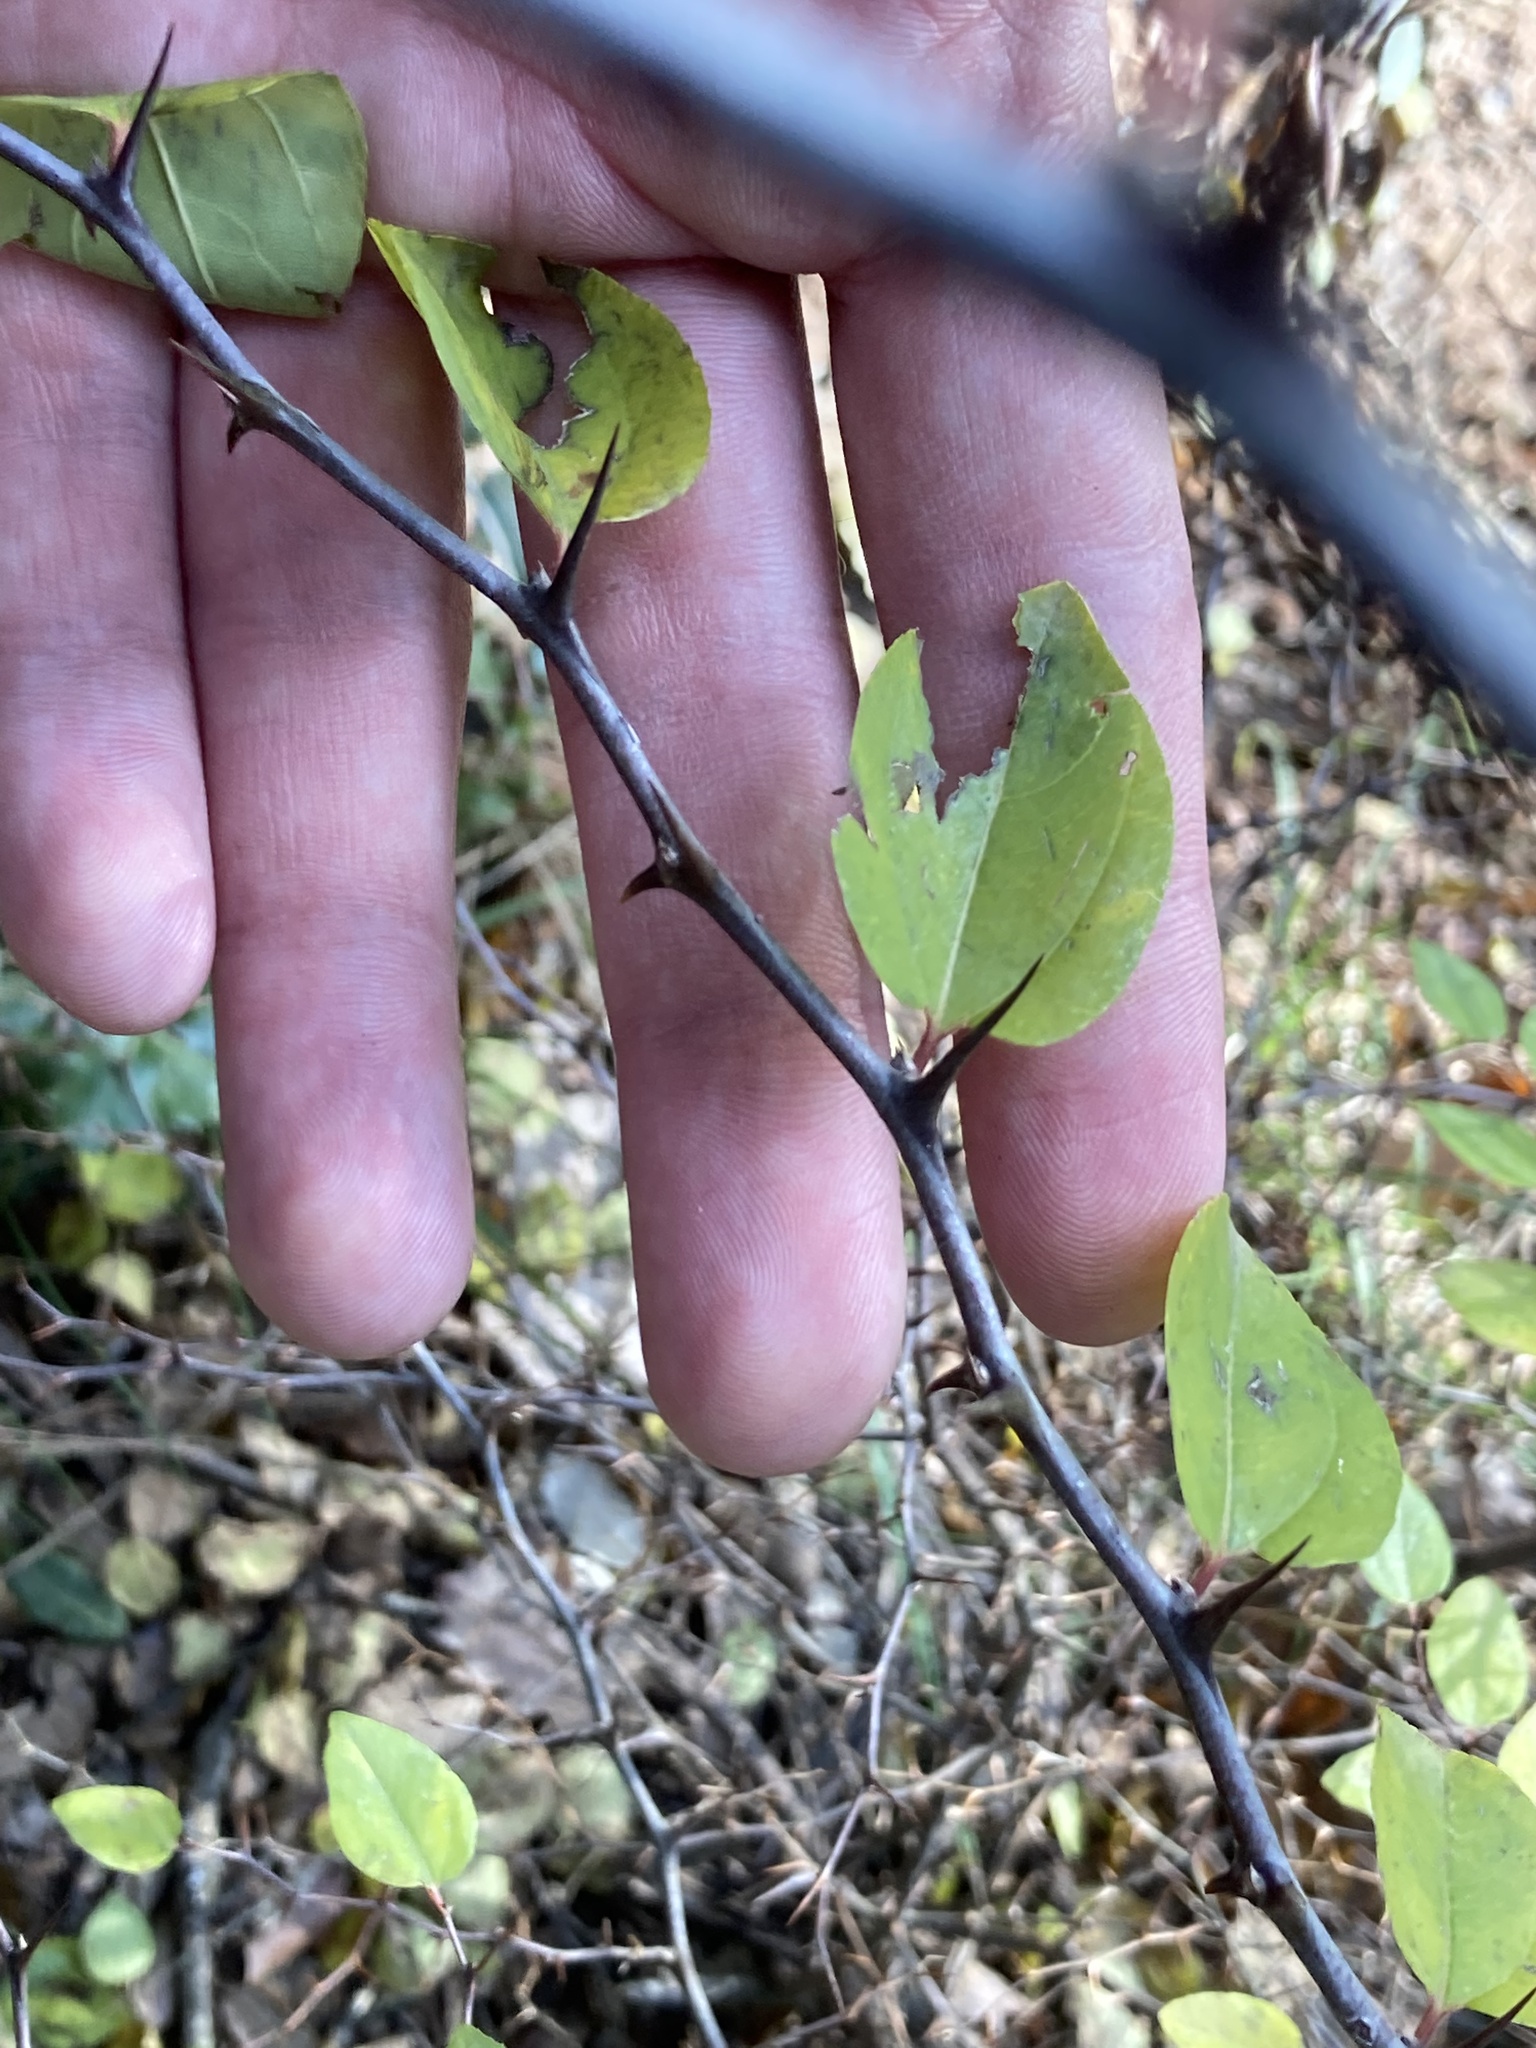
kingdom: Plantae
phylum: Tracheophyta
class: Magnoliopsida
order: Rosales
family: Rhamnaceae
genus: Paliurus
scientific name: Paliurus spina-christi
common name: Jeruselem thorn
